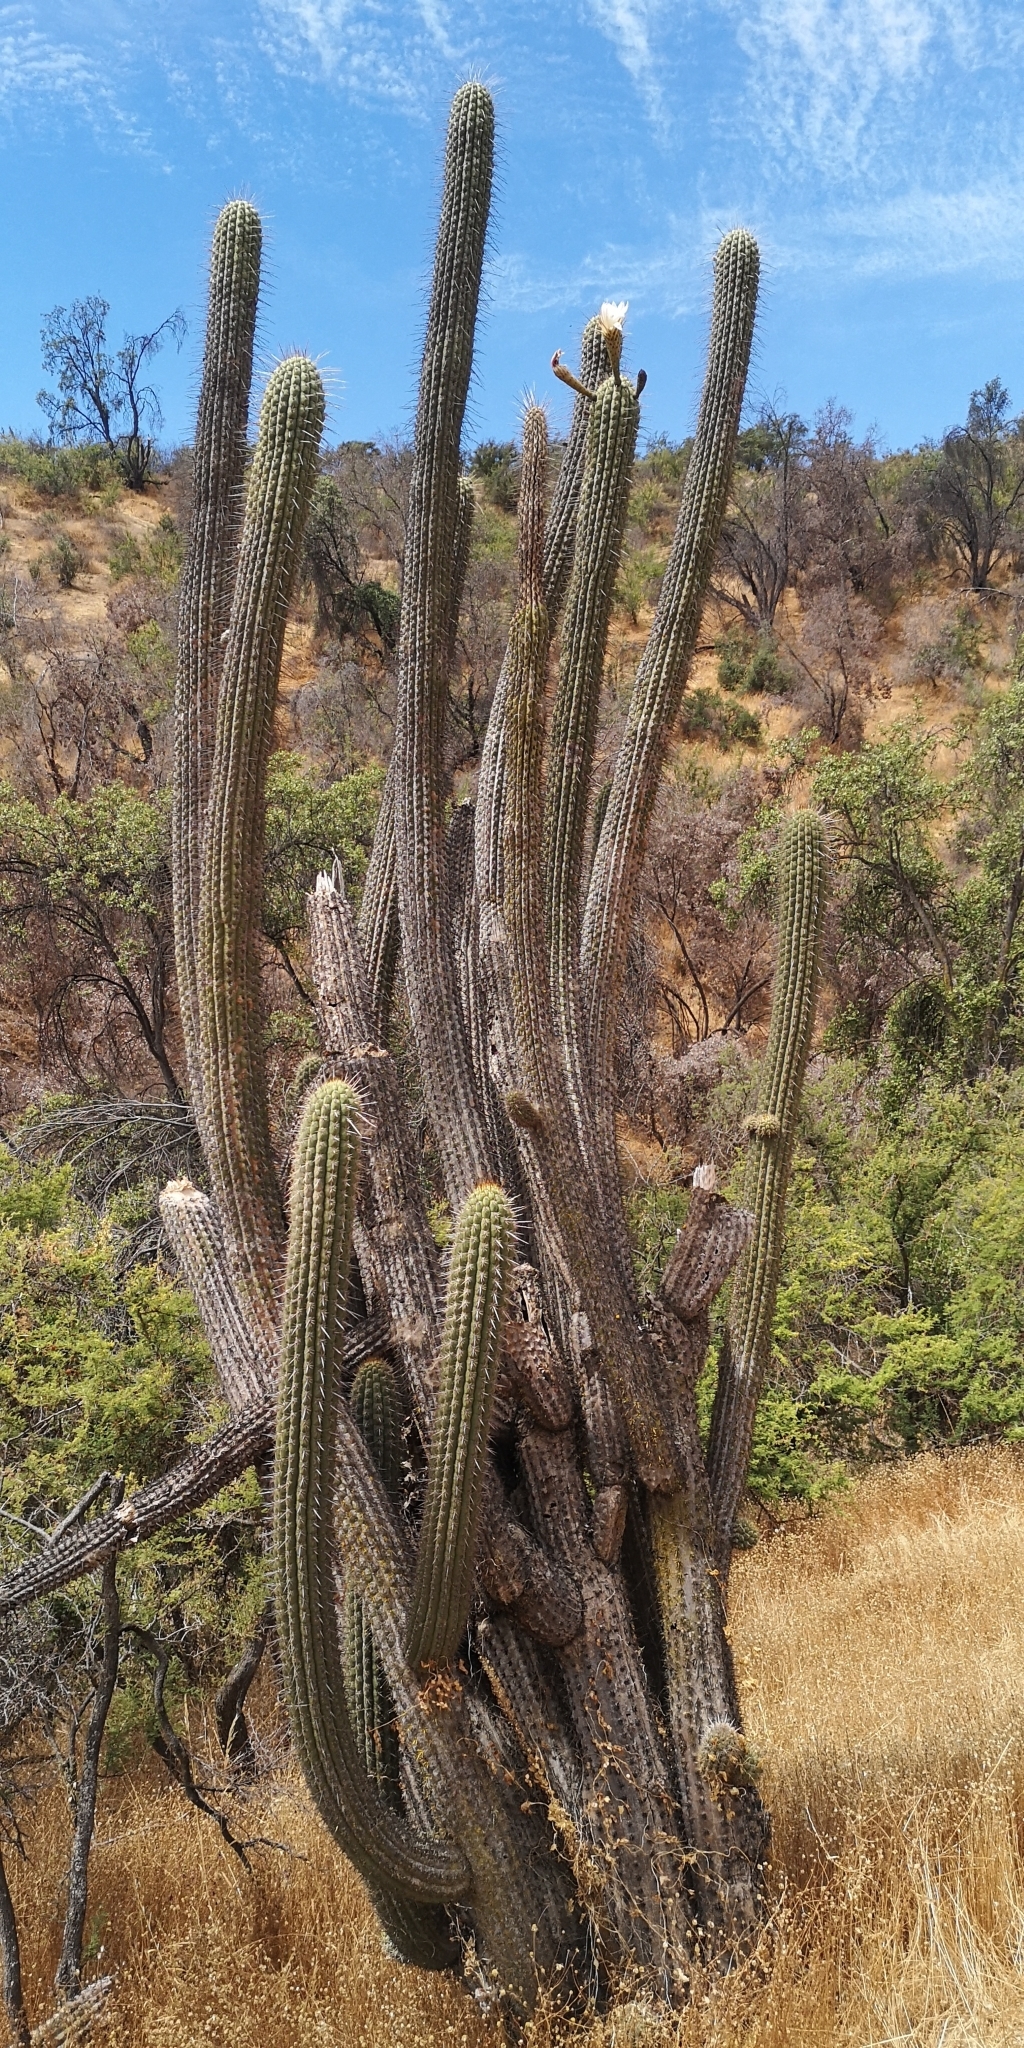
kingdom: Plantae
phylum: Tracheophyta
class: Magnoliopsida
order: Caryophyllales
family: Cactaceae
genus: Leucostele
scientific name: Leucostele chiloensis
